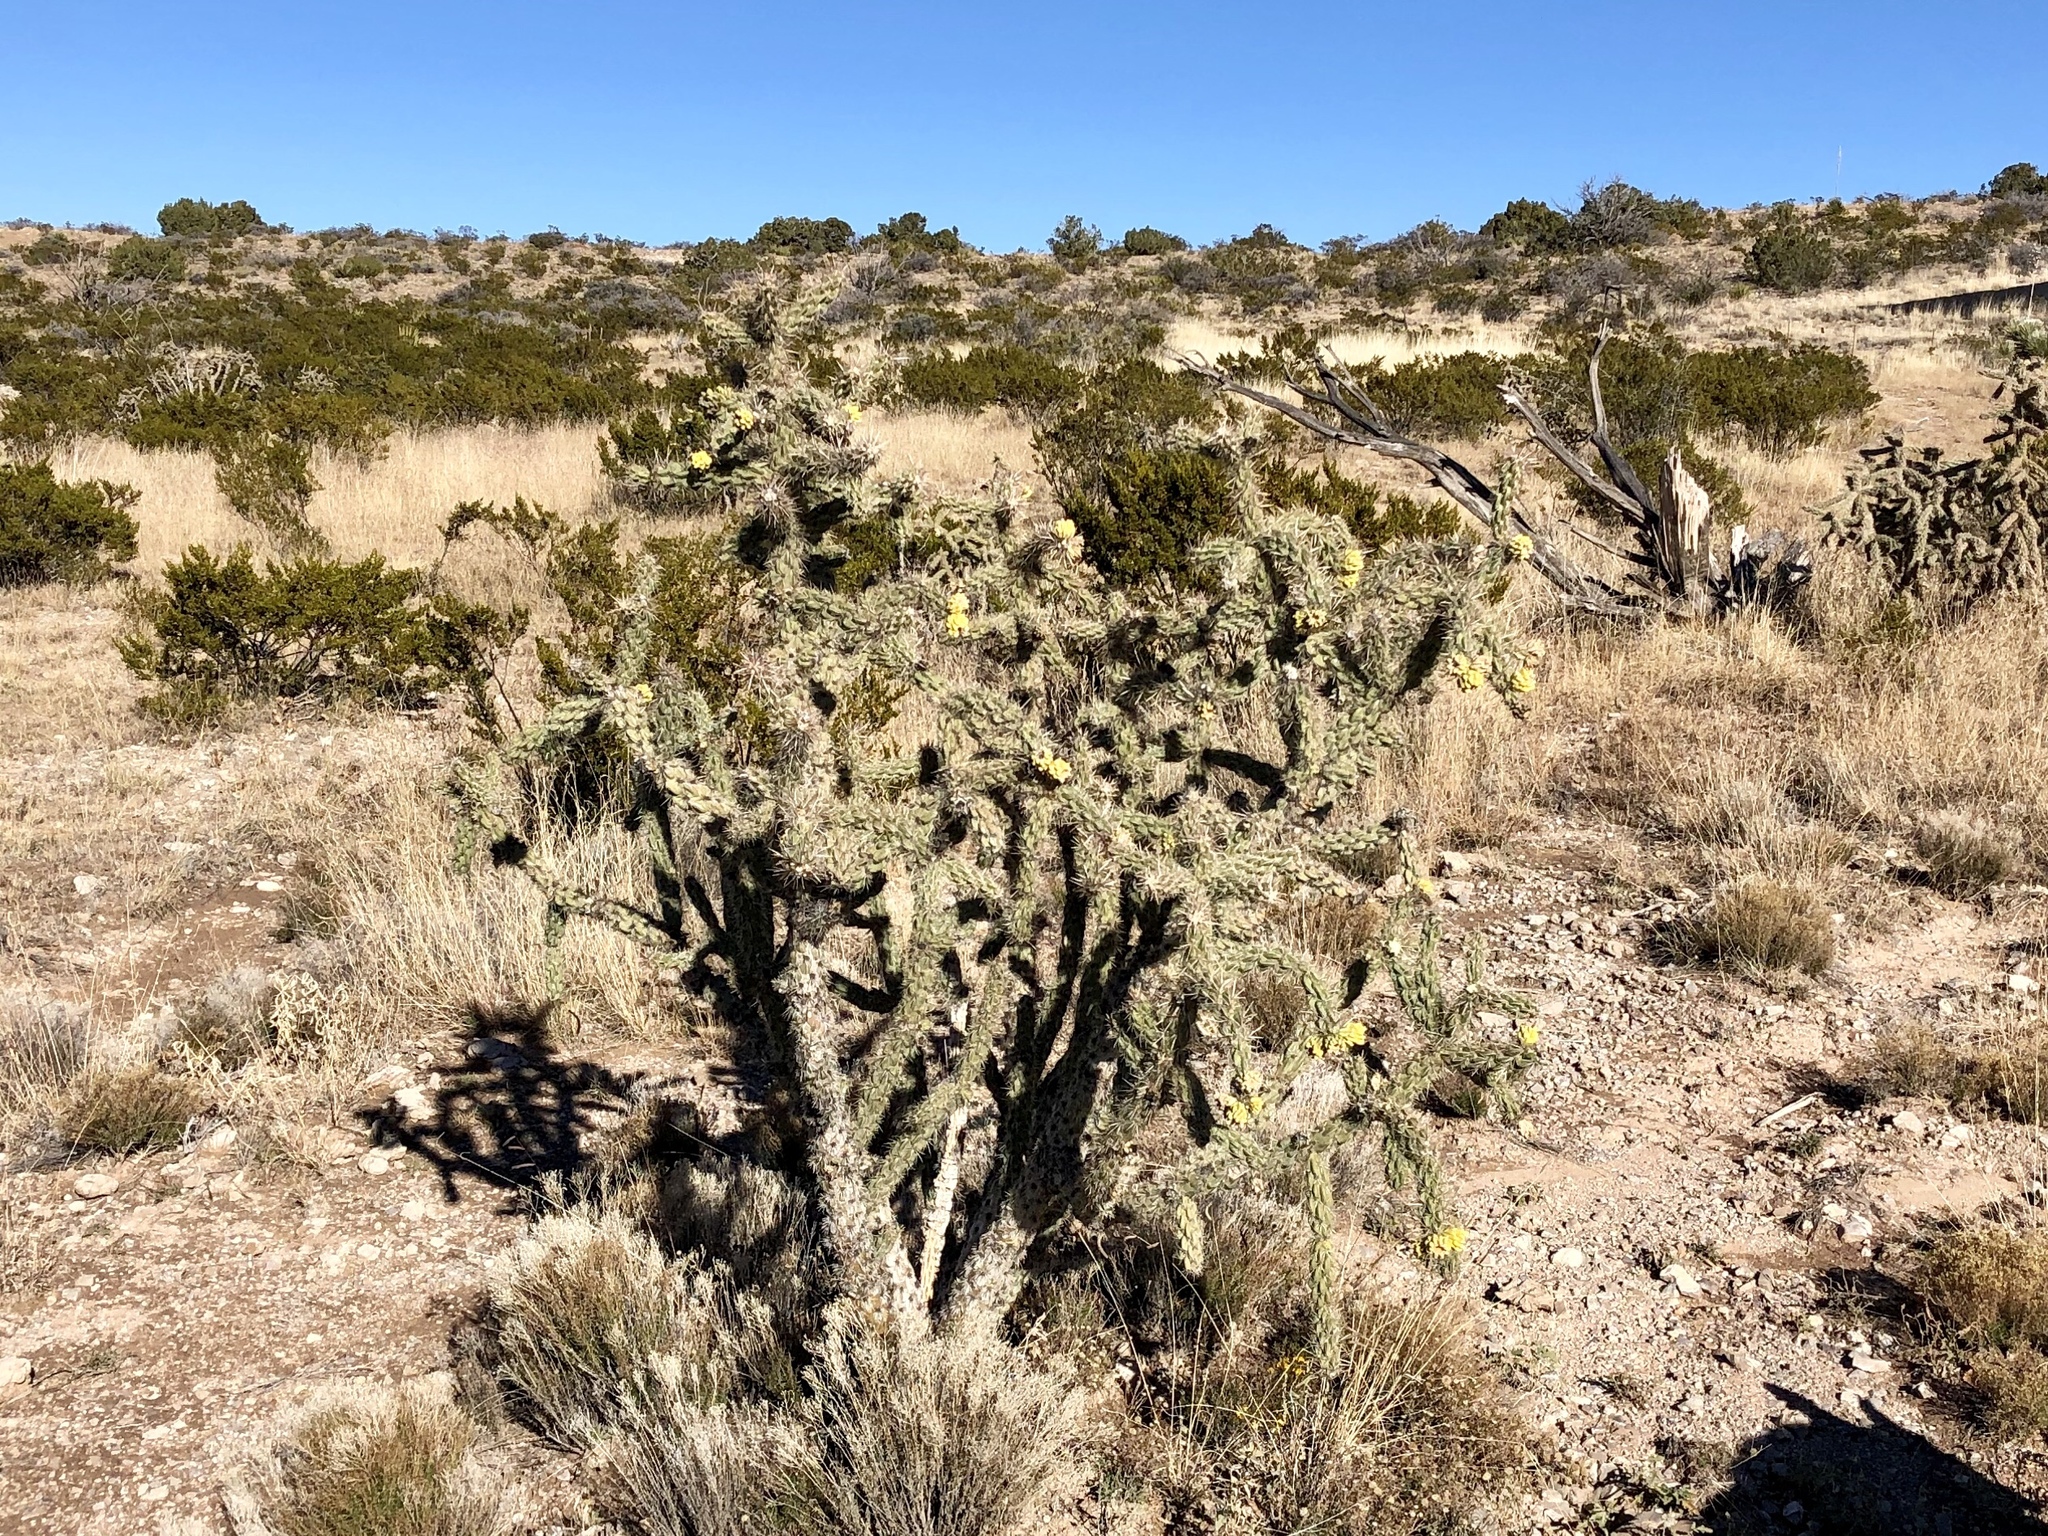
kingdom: Plantae
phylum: Tracheophyta
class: Magnoliopsida
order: Caryophyllales
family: Cactaceae
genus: Cylindropuntia
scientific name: Cylindropuntia imbricata
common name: Candelabrum cactus
